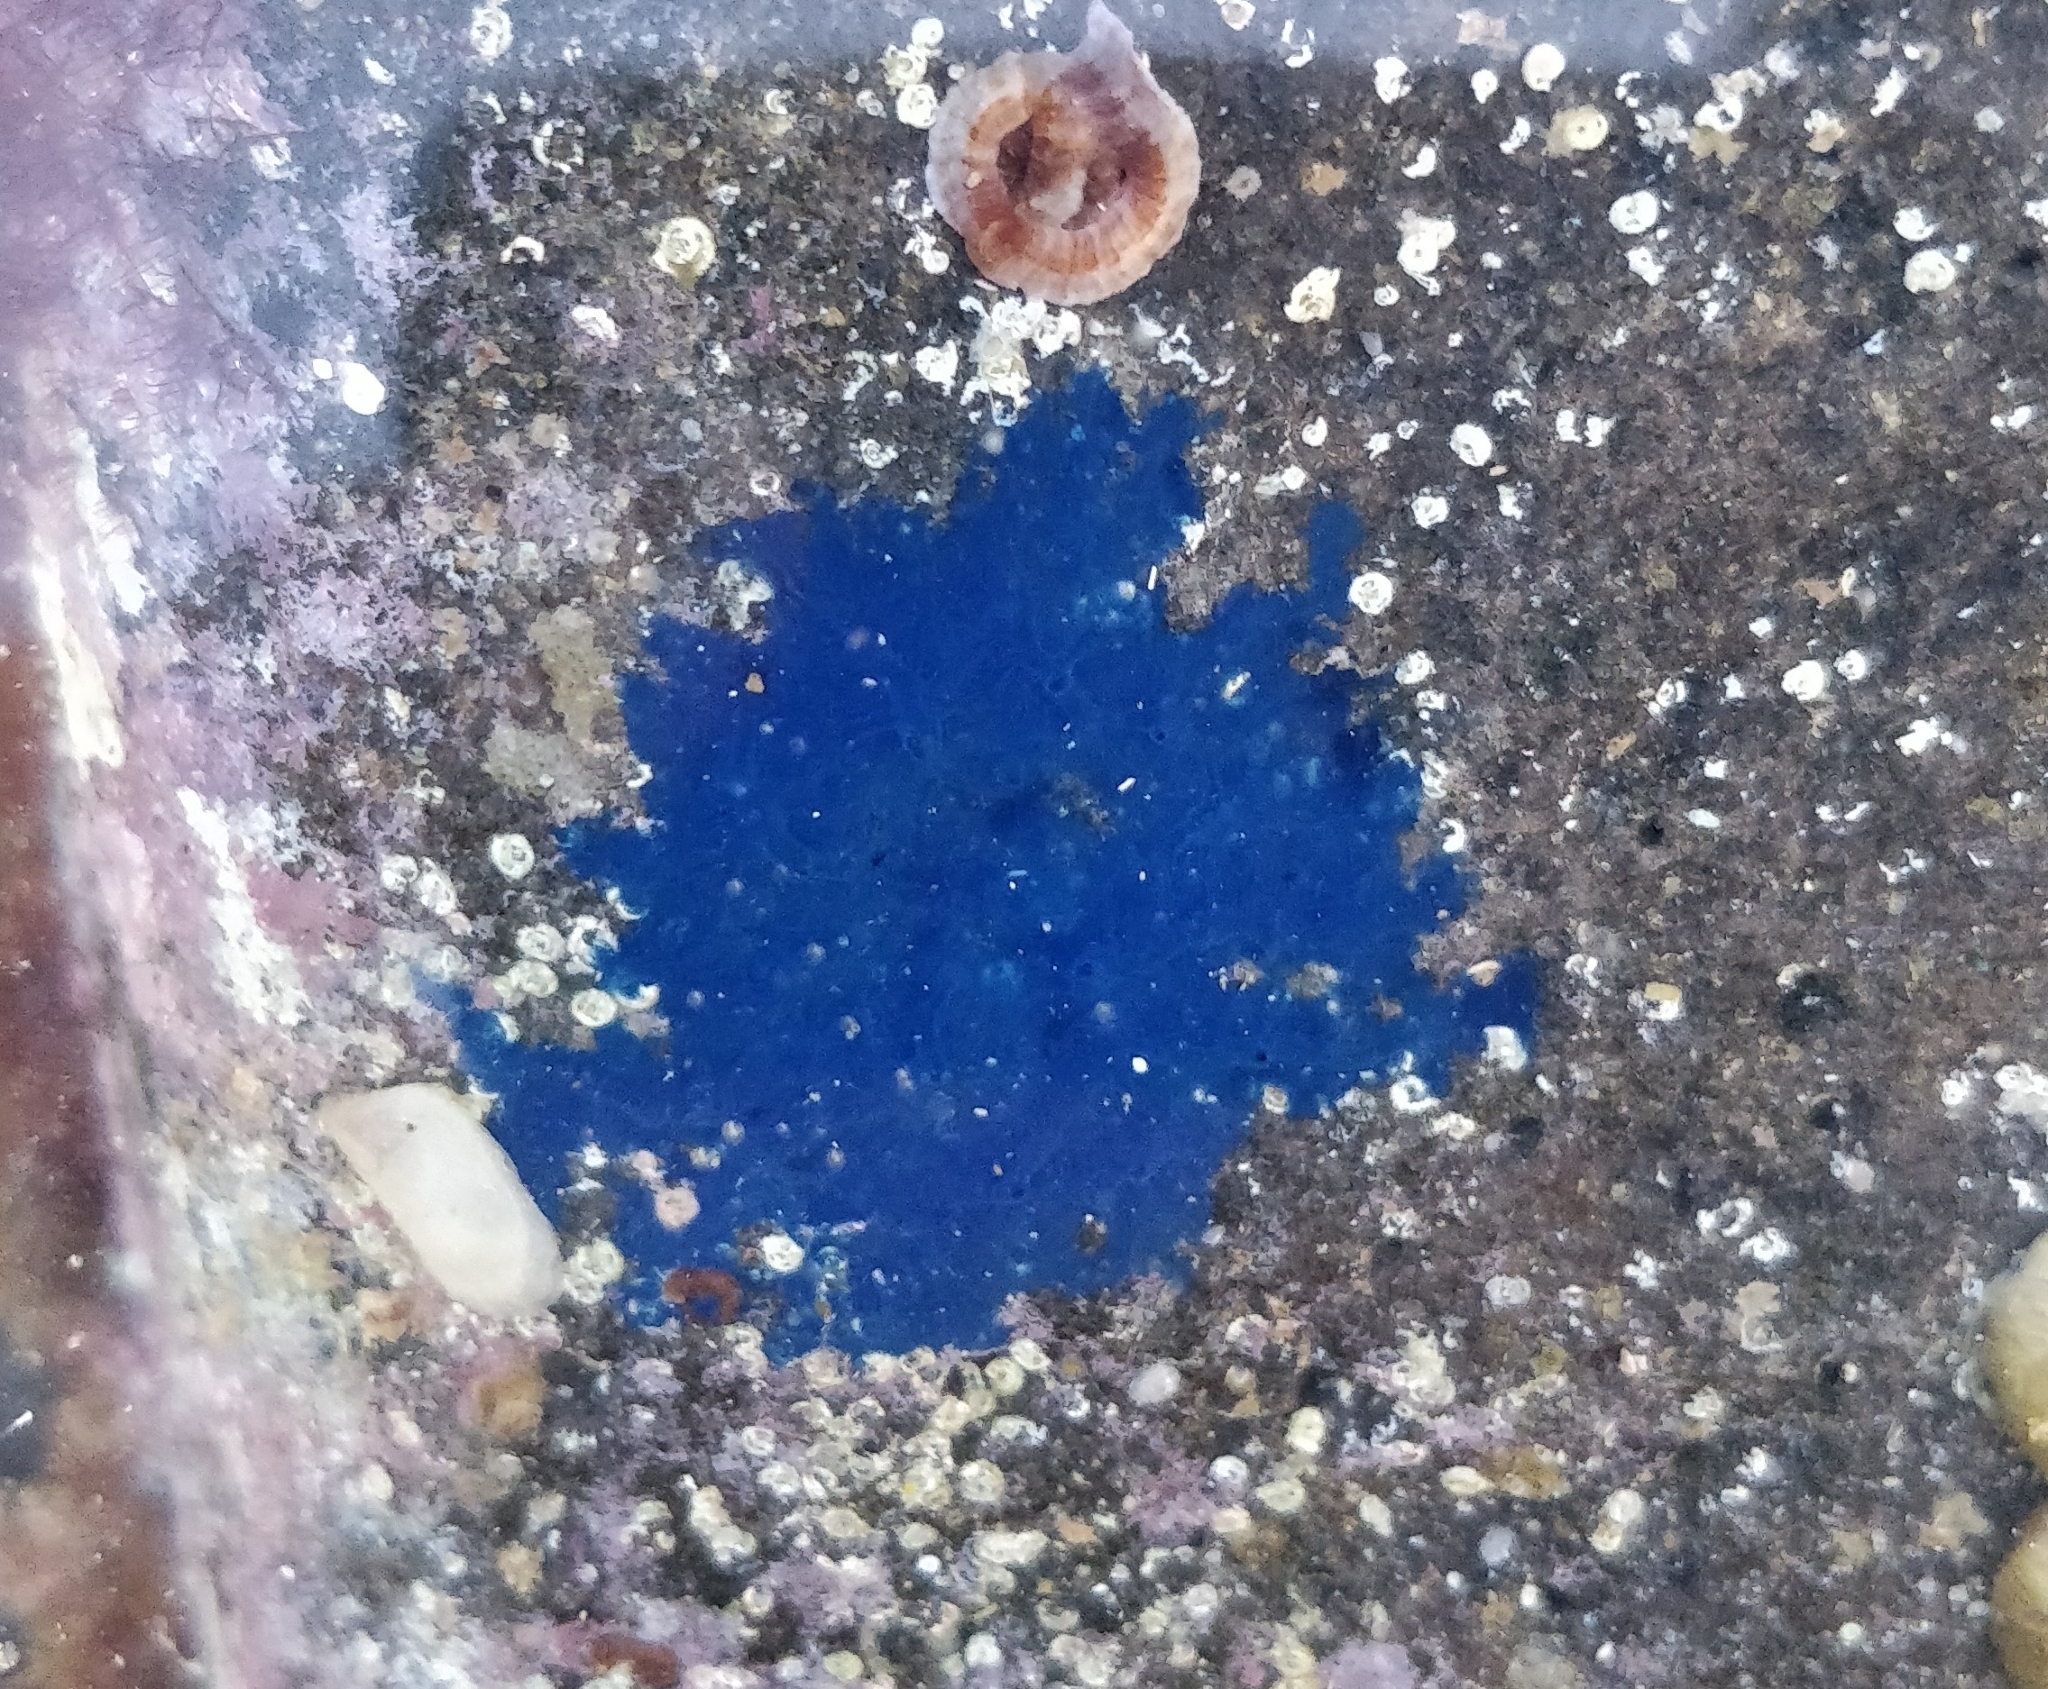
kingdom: Animalia
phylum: Porifera
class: Demospongiae
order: Suberitida
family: Suberitidae
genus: Terpios
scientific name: Terpios gelatinosus
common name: Blue encrusting sponge
